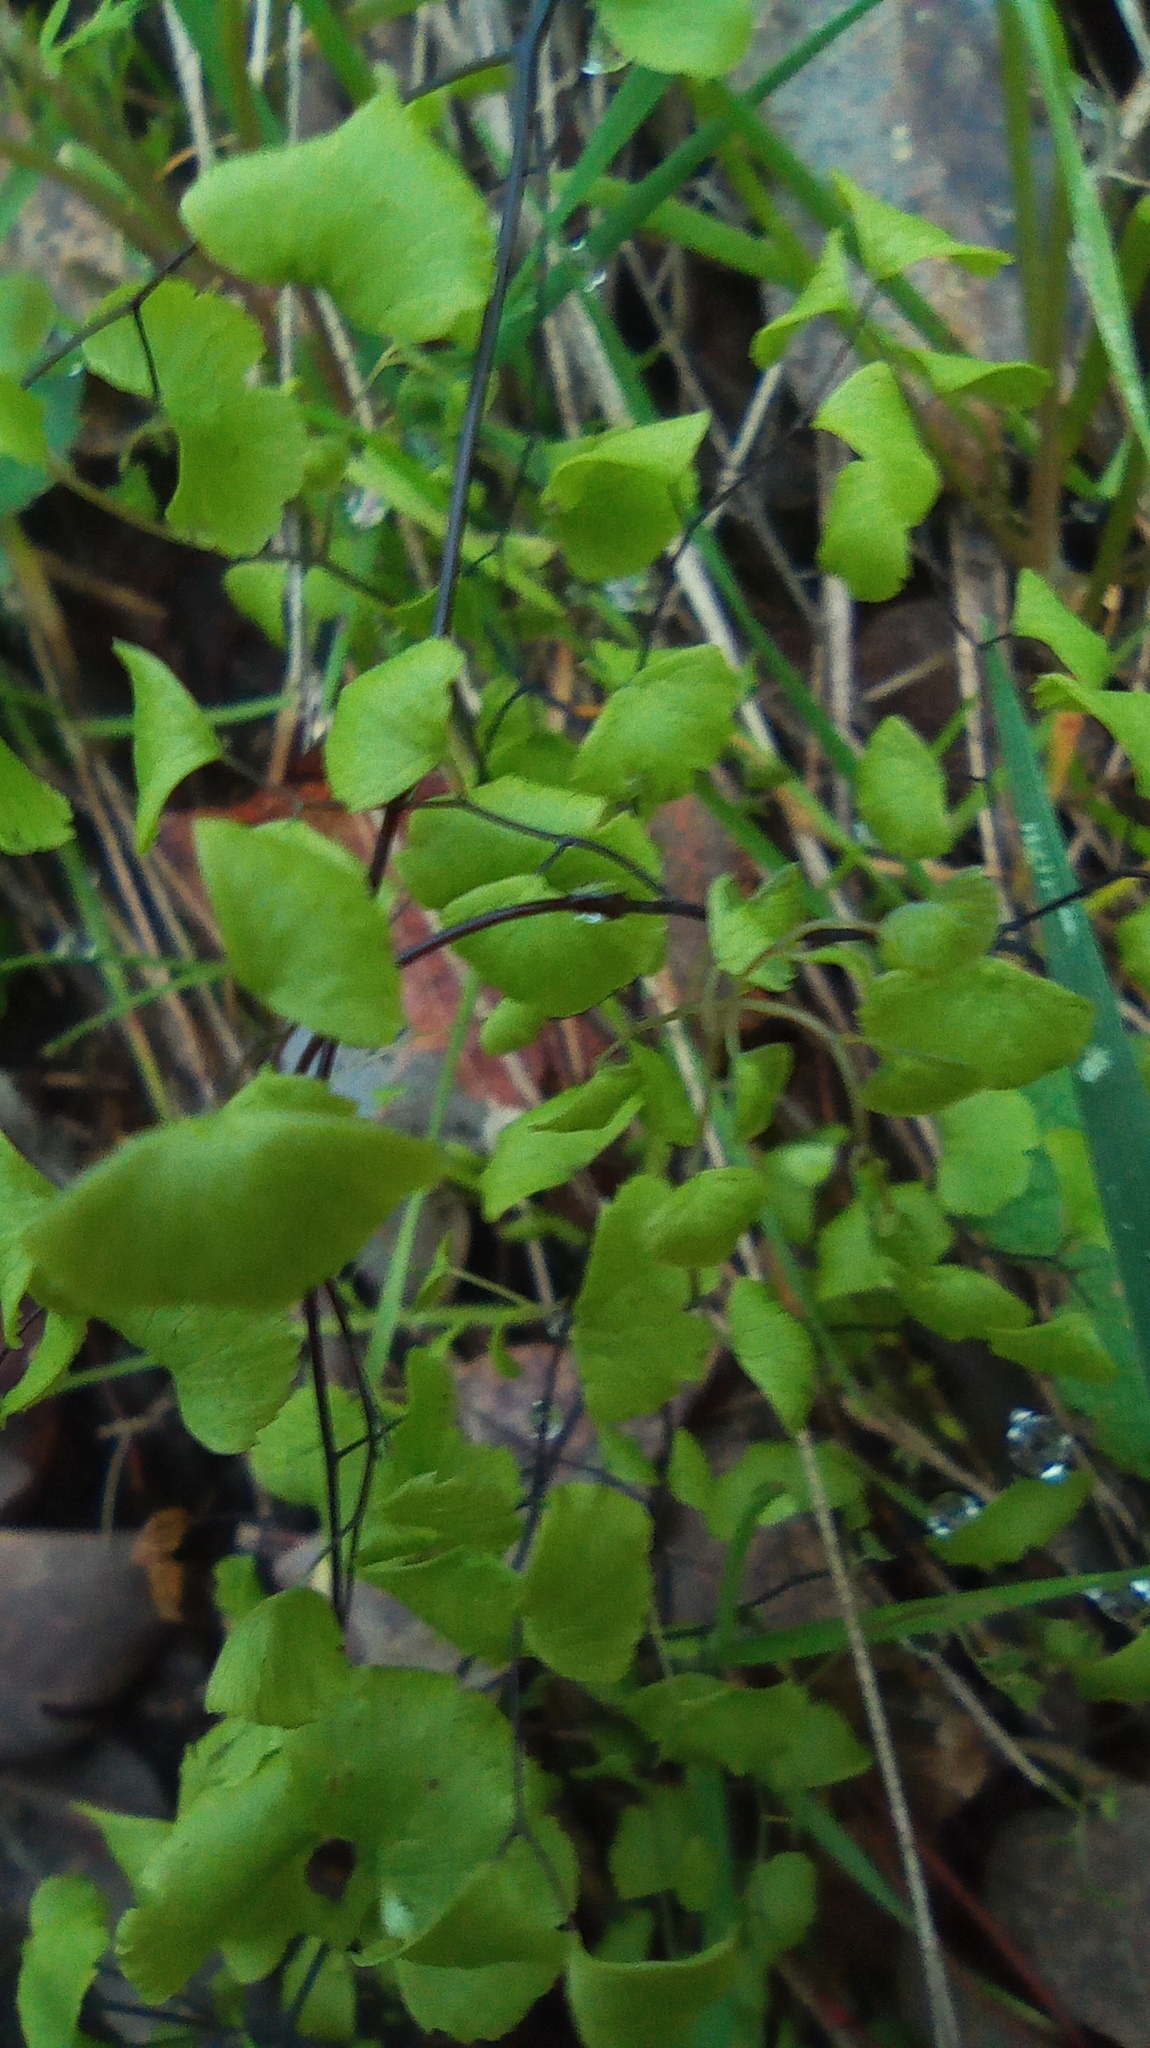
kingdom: Plantae
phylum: Tracheophyta
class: Polypodiopsida
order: Polypodiales
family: Pteridaceae
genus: Adiantum
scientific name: Adiantum jordanii
